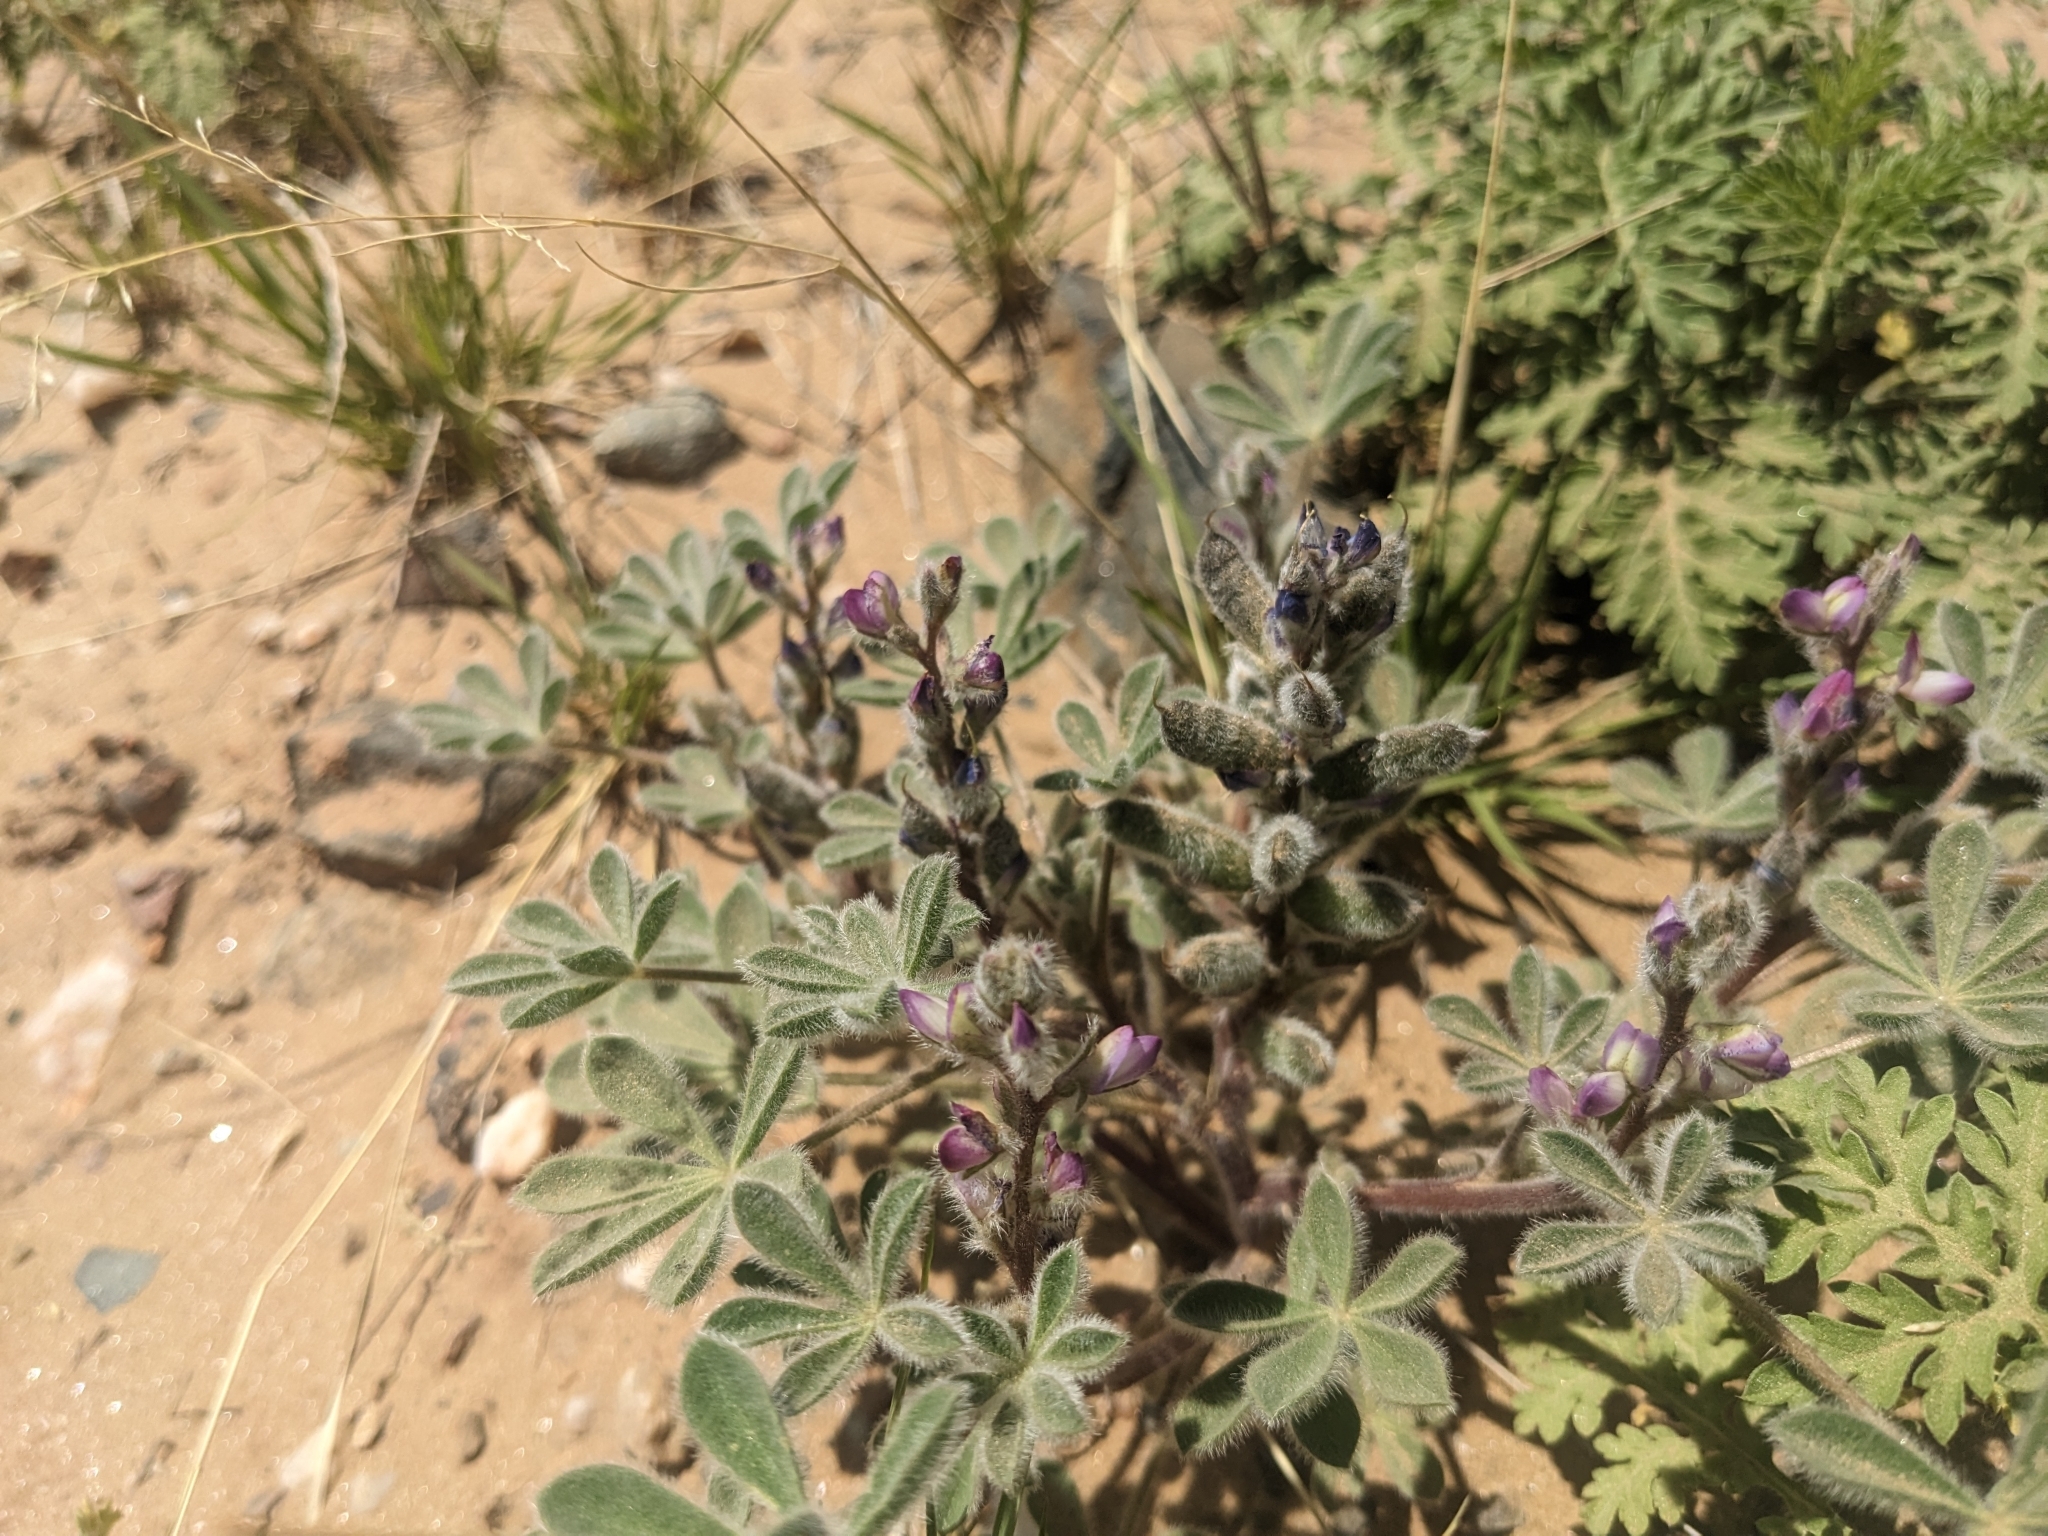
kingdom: Plantae
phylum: Tracheophyta
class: Magnoliopsida
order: Fabales
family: Fabaceae
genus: Lupinus
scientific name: Lupinus concinnus
